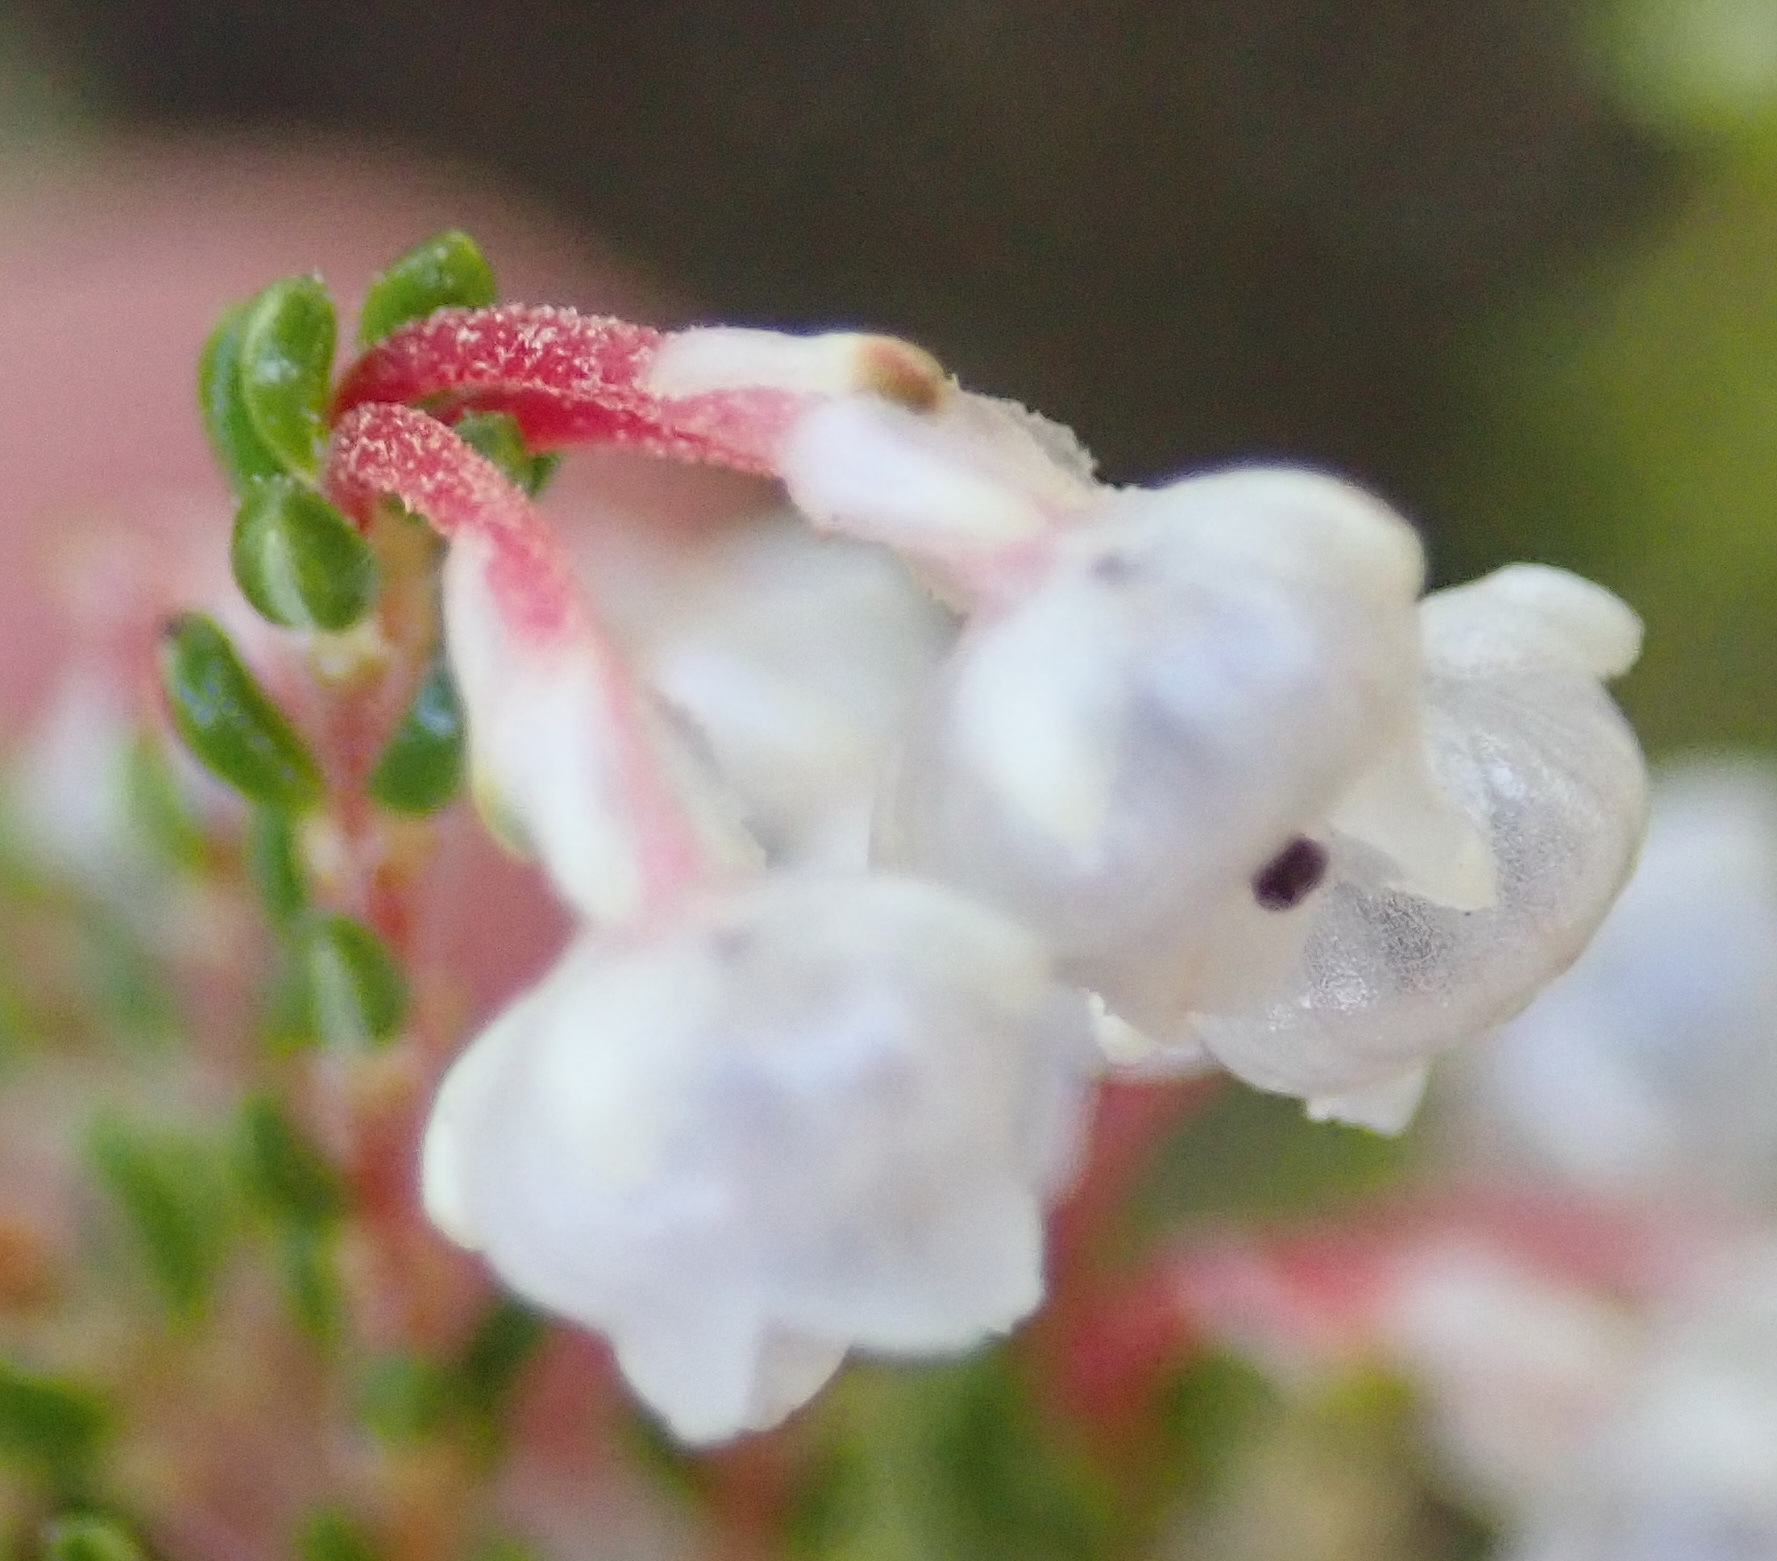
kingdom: Plantae
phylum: Tracheophyta
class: Magnoliopsida
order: Ericales
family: Ericaceae
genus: Erica
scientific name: Erica spectabilis
